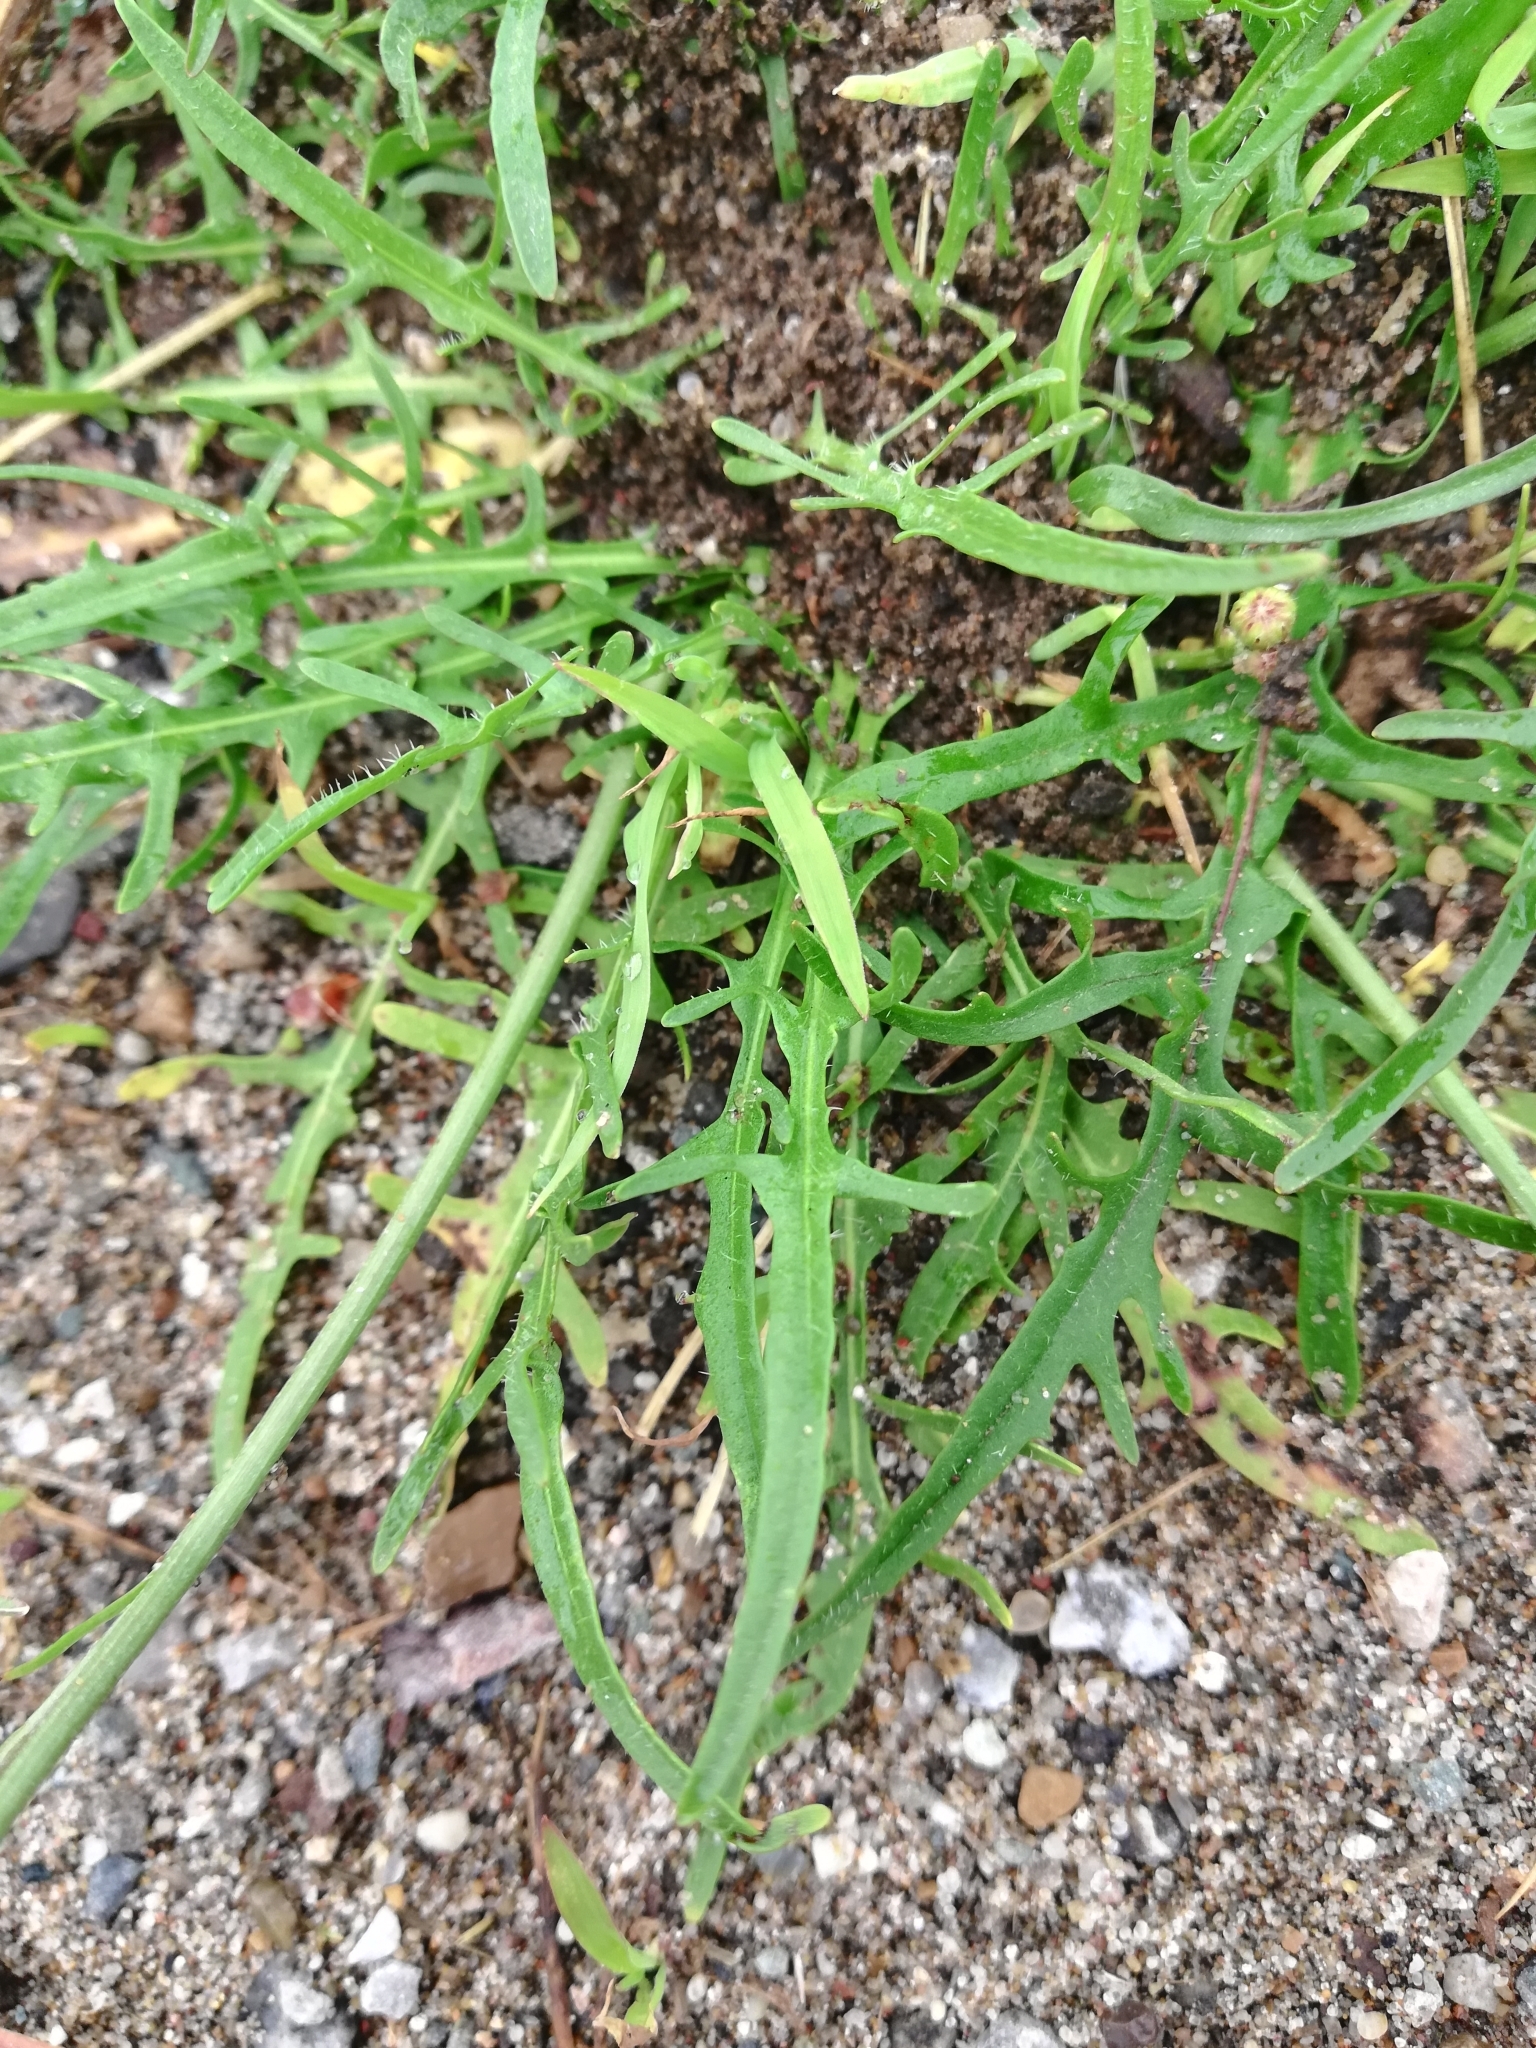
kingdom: Plantae
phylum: Tracheophyta
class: Magnoliopsida
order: Asterales
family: Asteraceae
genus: Scorzoneroides
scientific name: Scorzoneroides autumnalis
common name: Autumn hawkbit
